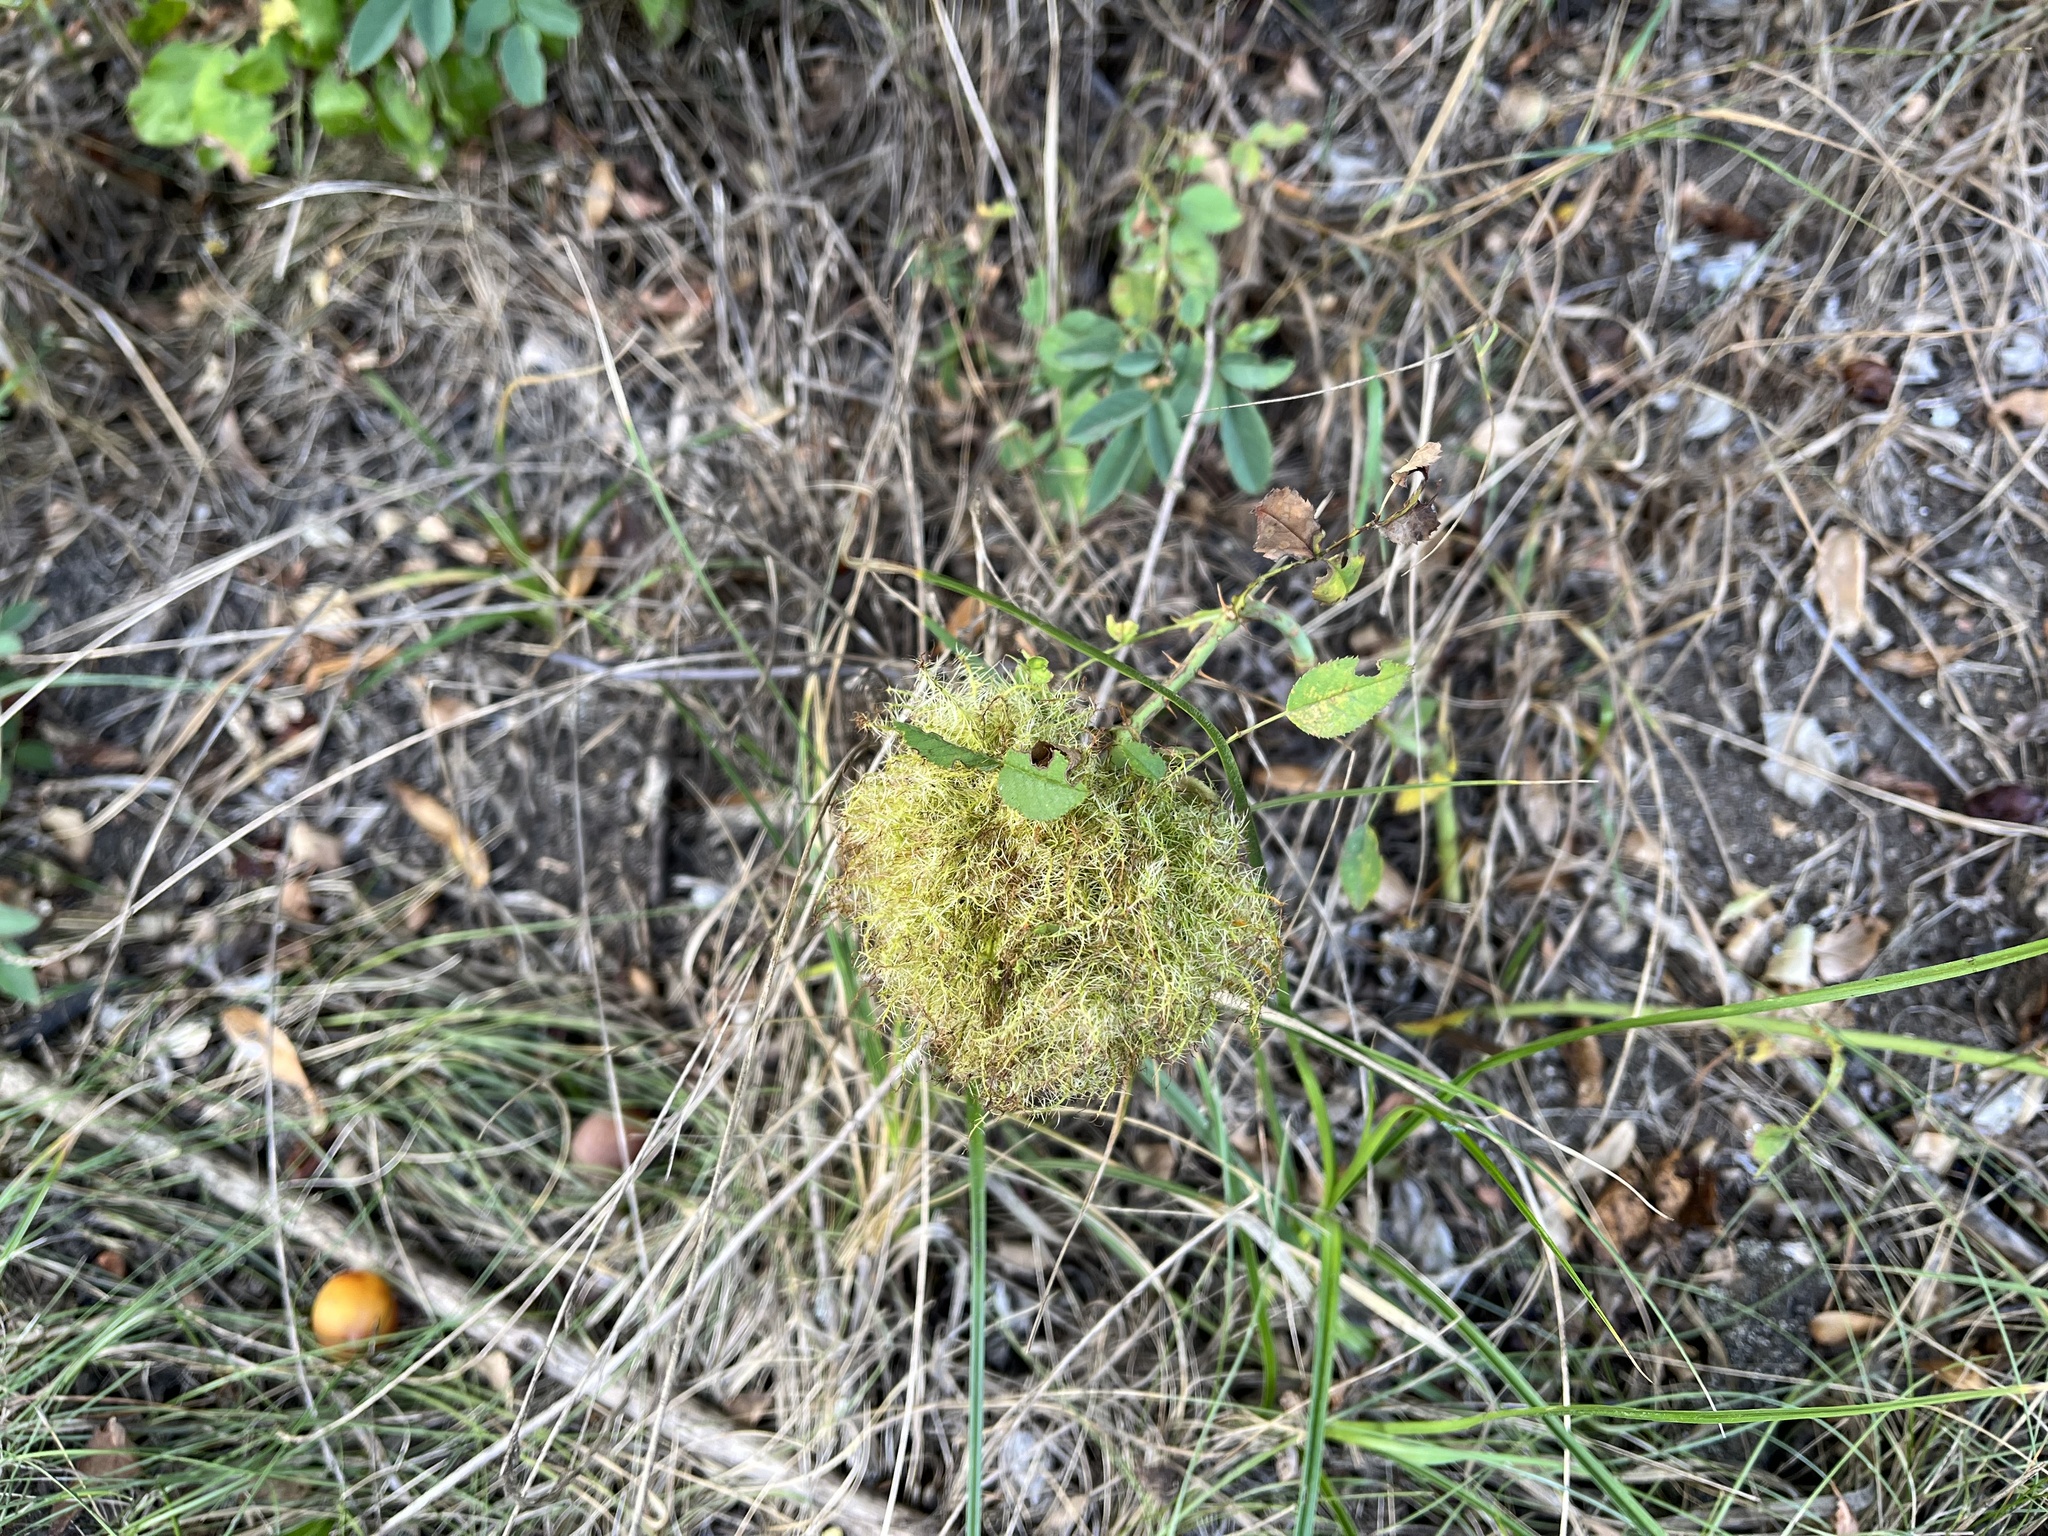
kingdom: Animalia
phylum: Arthropoda
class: Insecta
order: Hymenoptera
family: Cynipidae
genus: Diplolepis
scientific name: Diplolepis rosae
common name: Bedeguar gall
